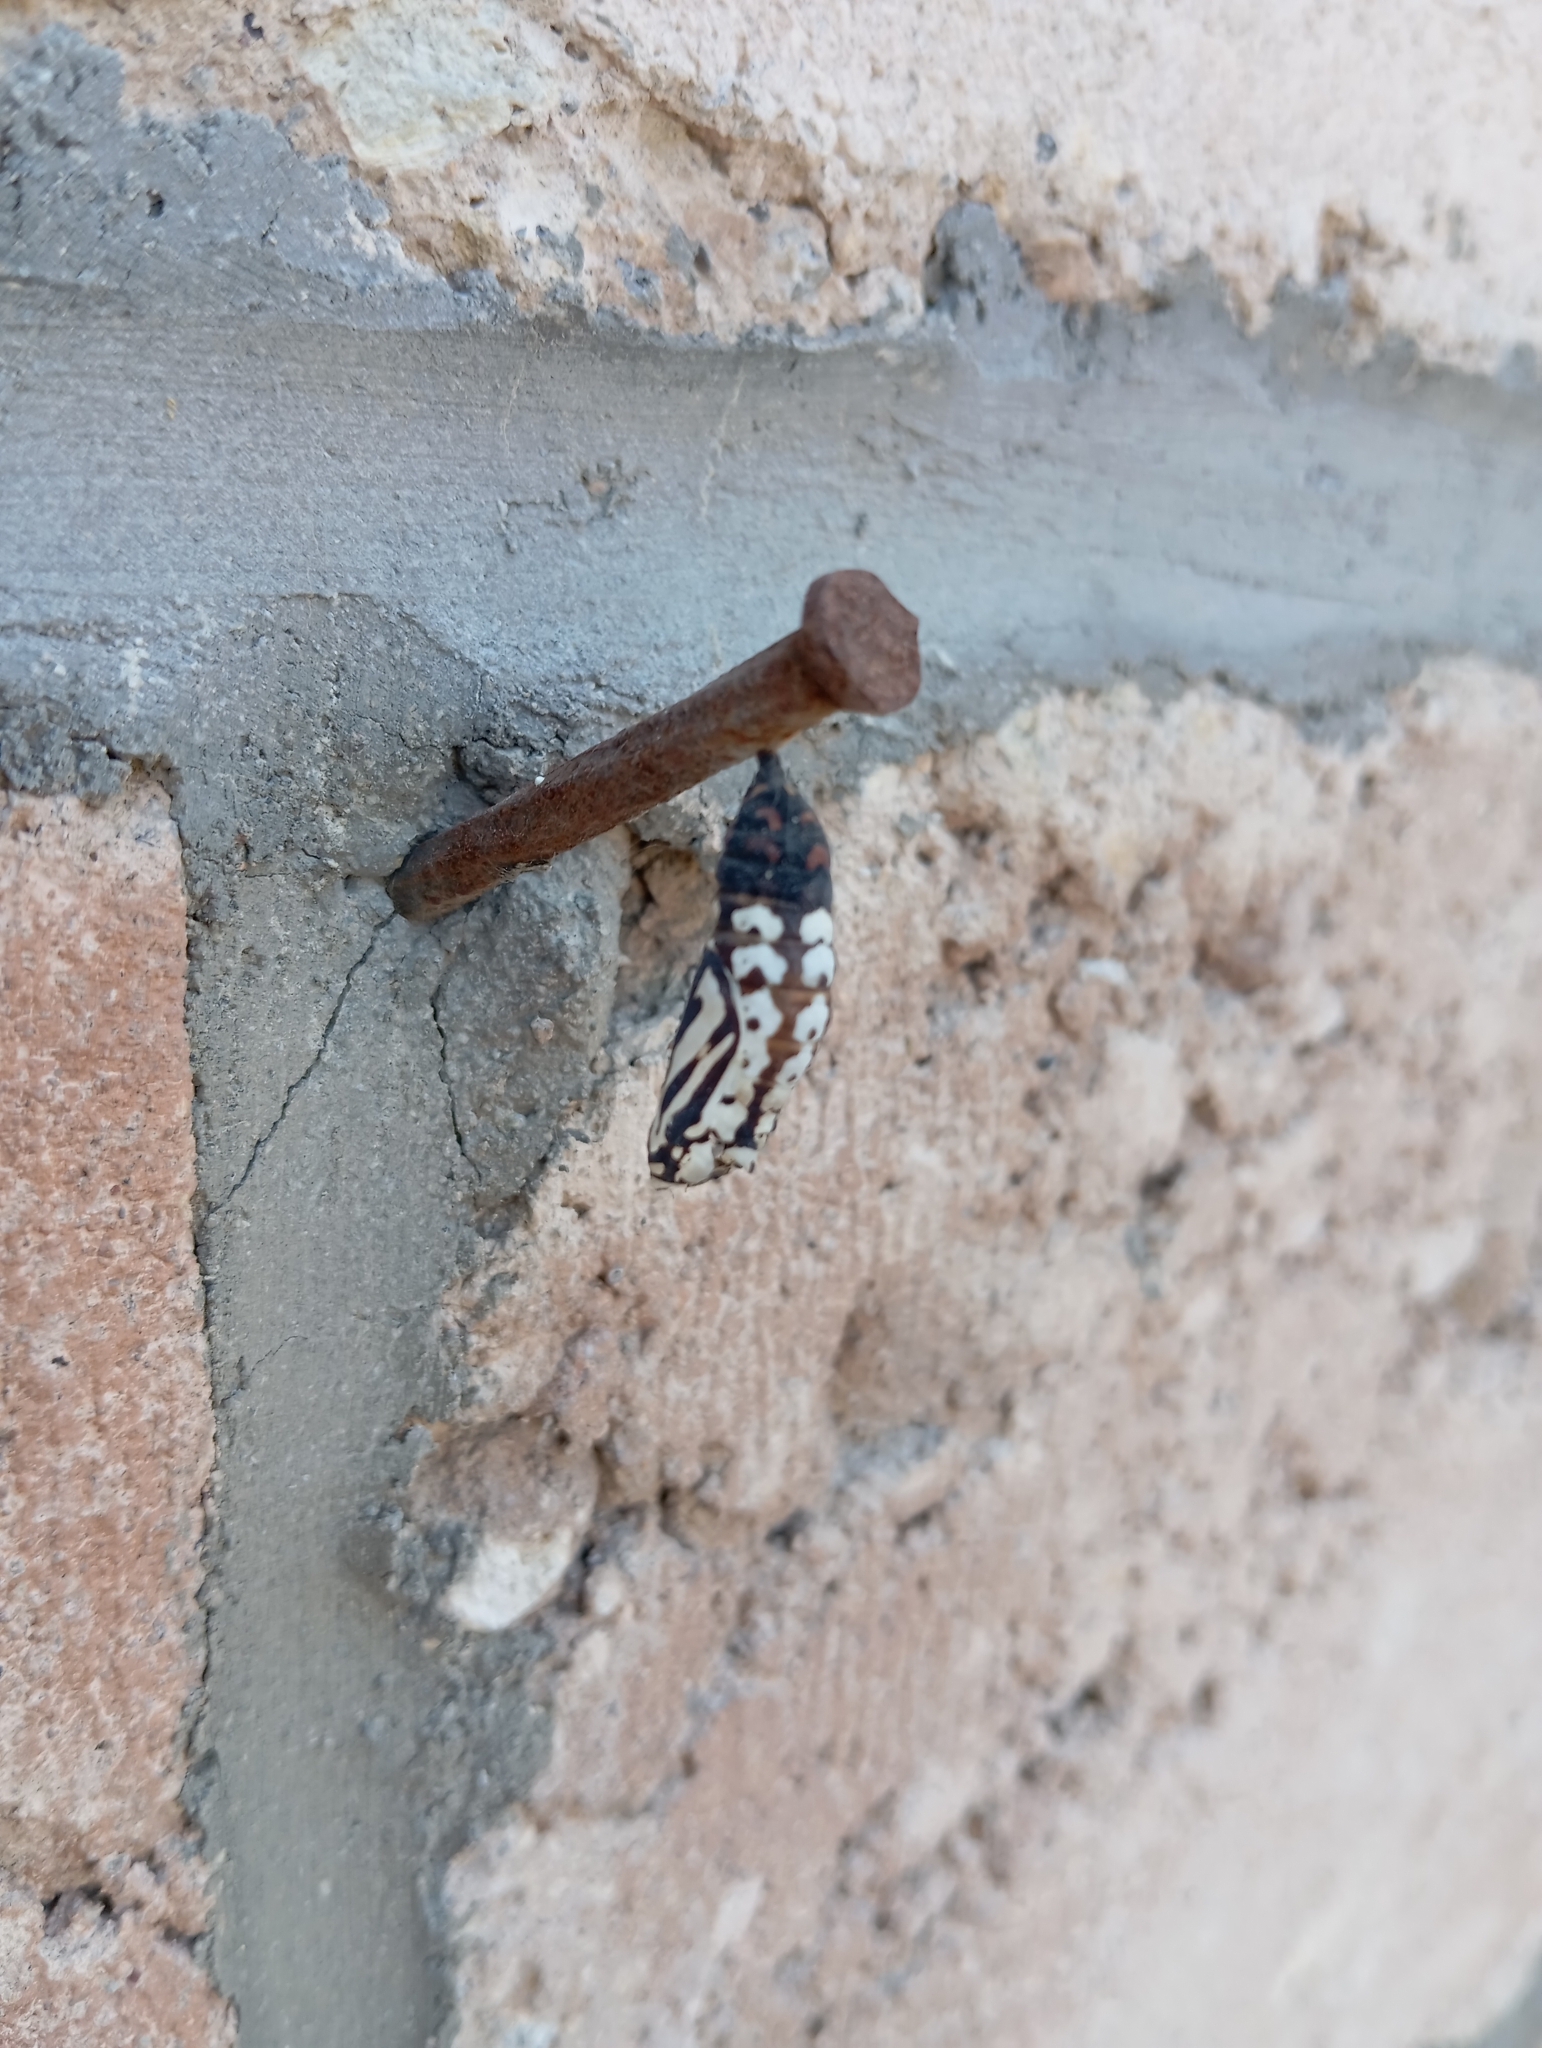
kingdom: Animalia
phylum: Arthropoda
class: Insecta
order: Lepidoptera
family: Nymphalidae
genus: Chlosyne
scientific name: Chlosyne ehrenbergii
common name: White-rayed patch
